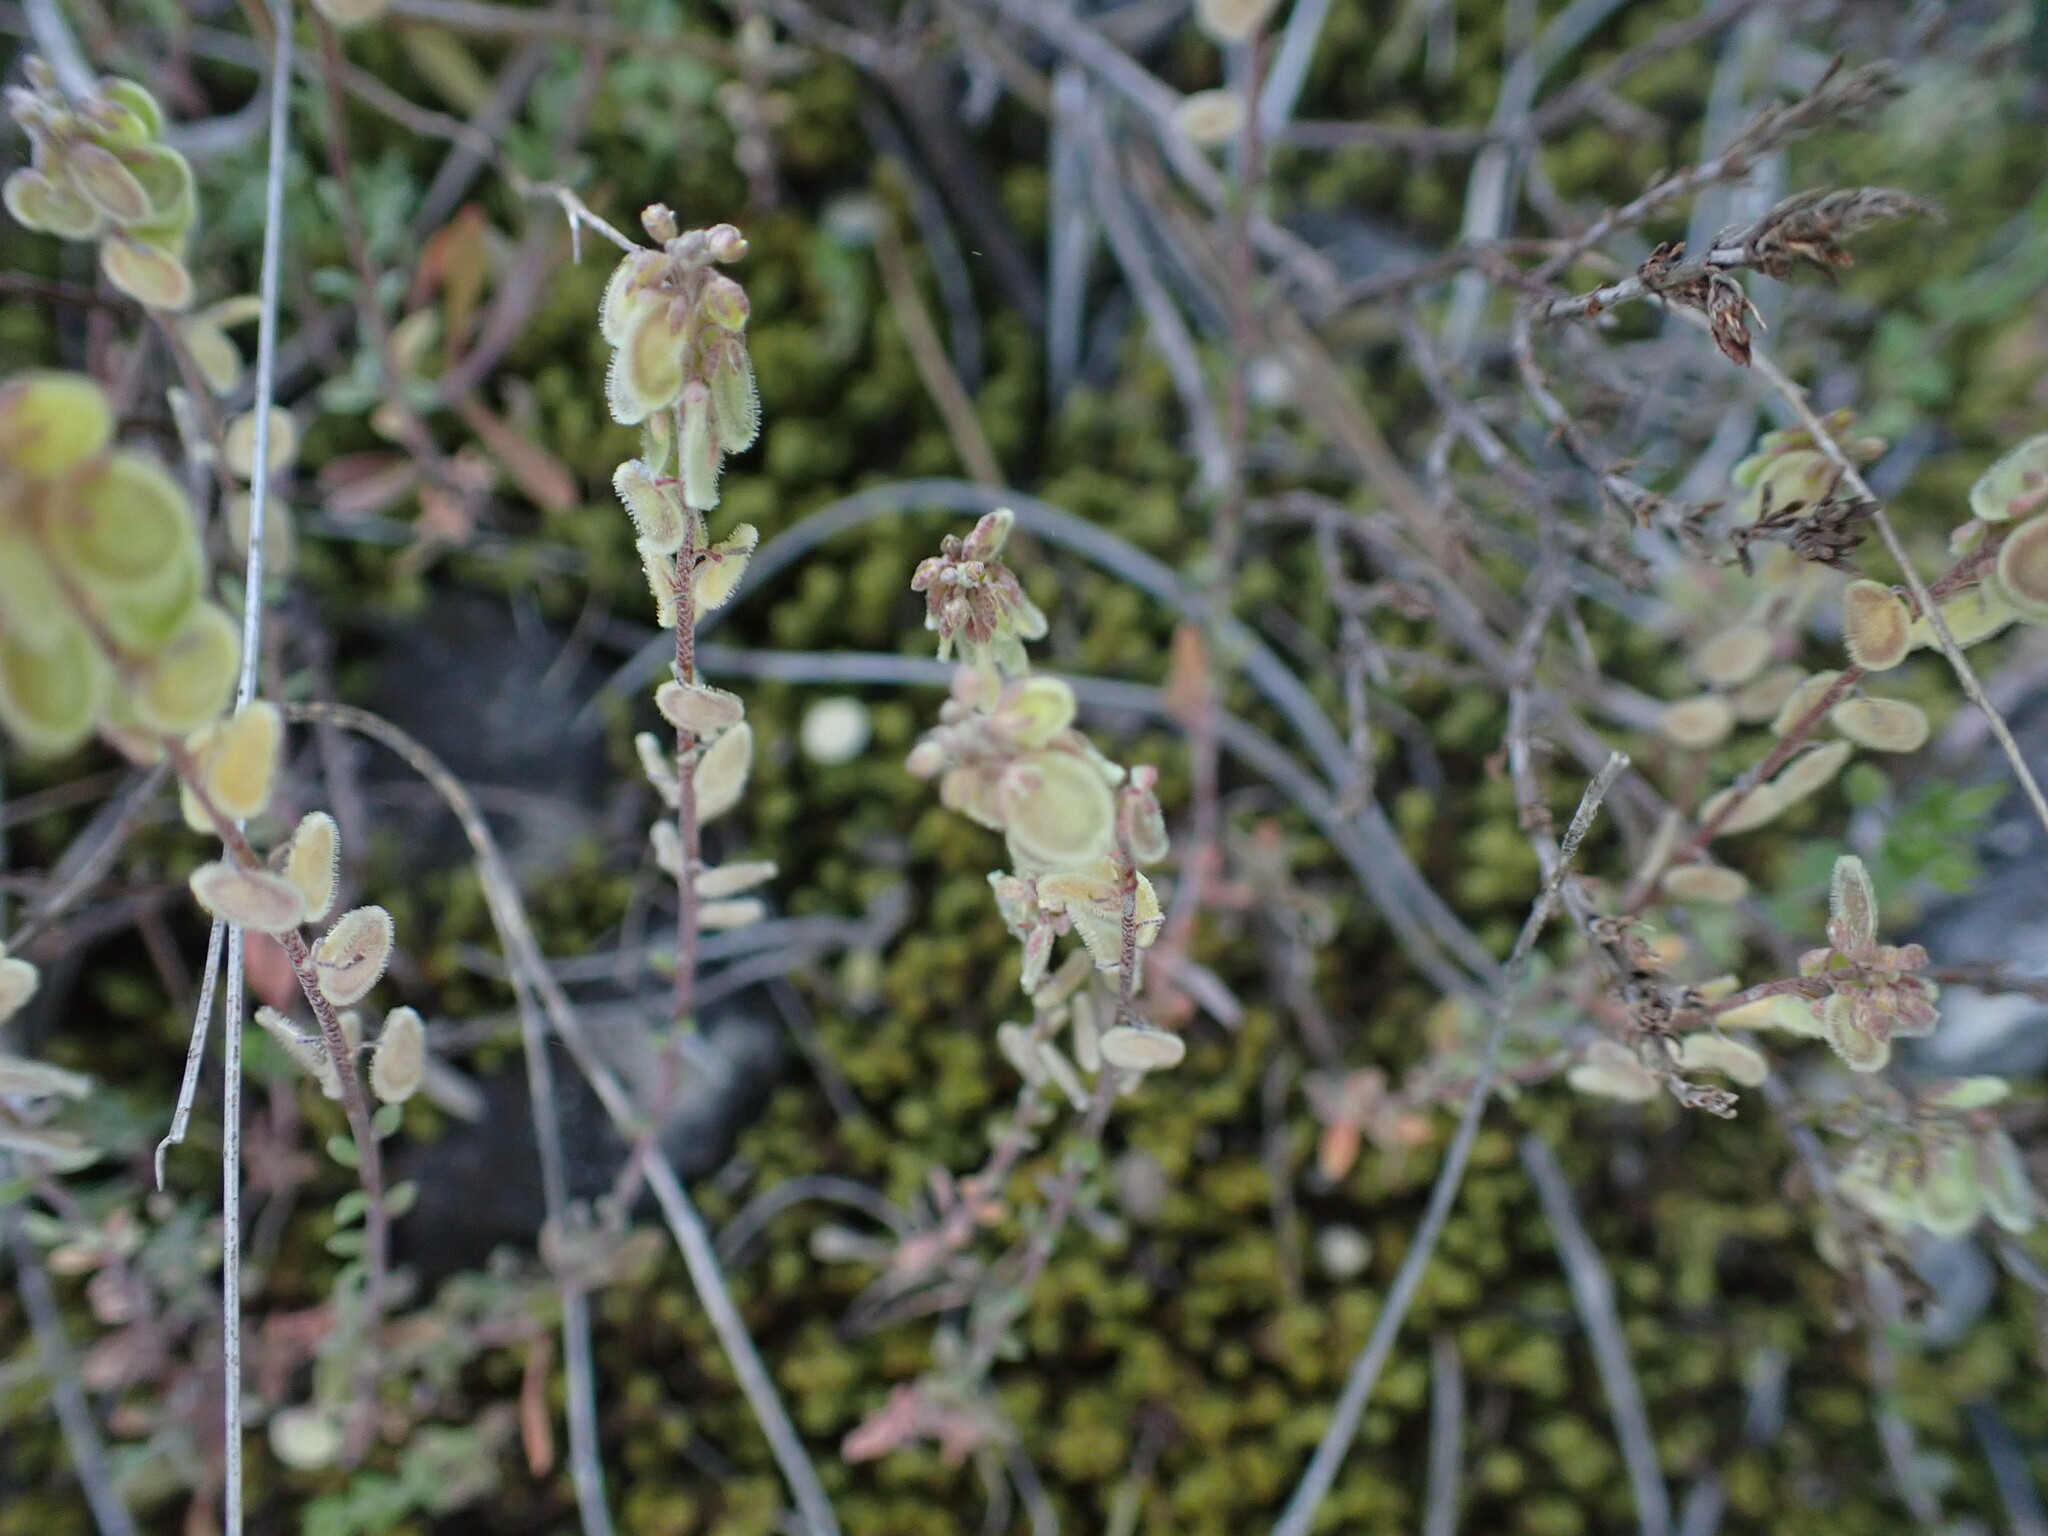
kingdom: Plantae
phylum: Tracheophyta
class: Magnoliopsida
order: Brassicales
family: Brassicaceae
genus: Clypeola
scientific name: Clypeola jonthlaspi
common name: Disk cress
